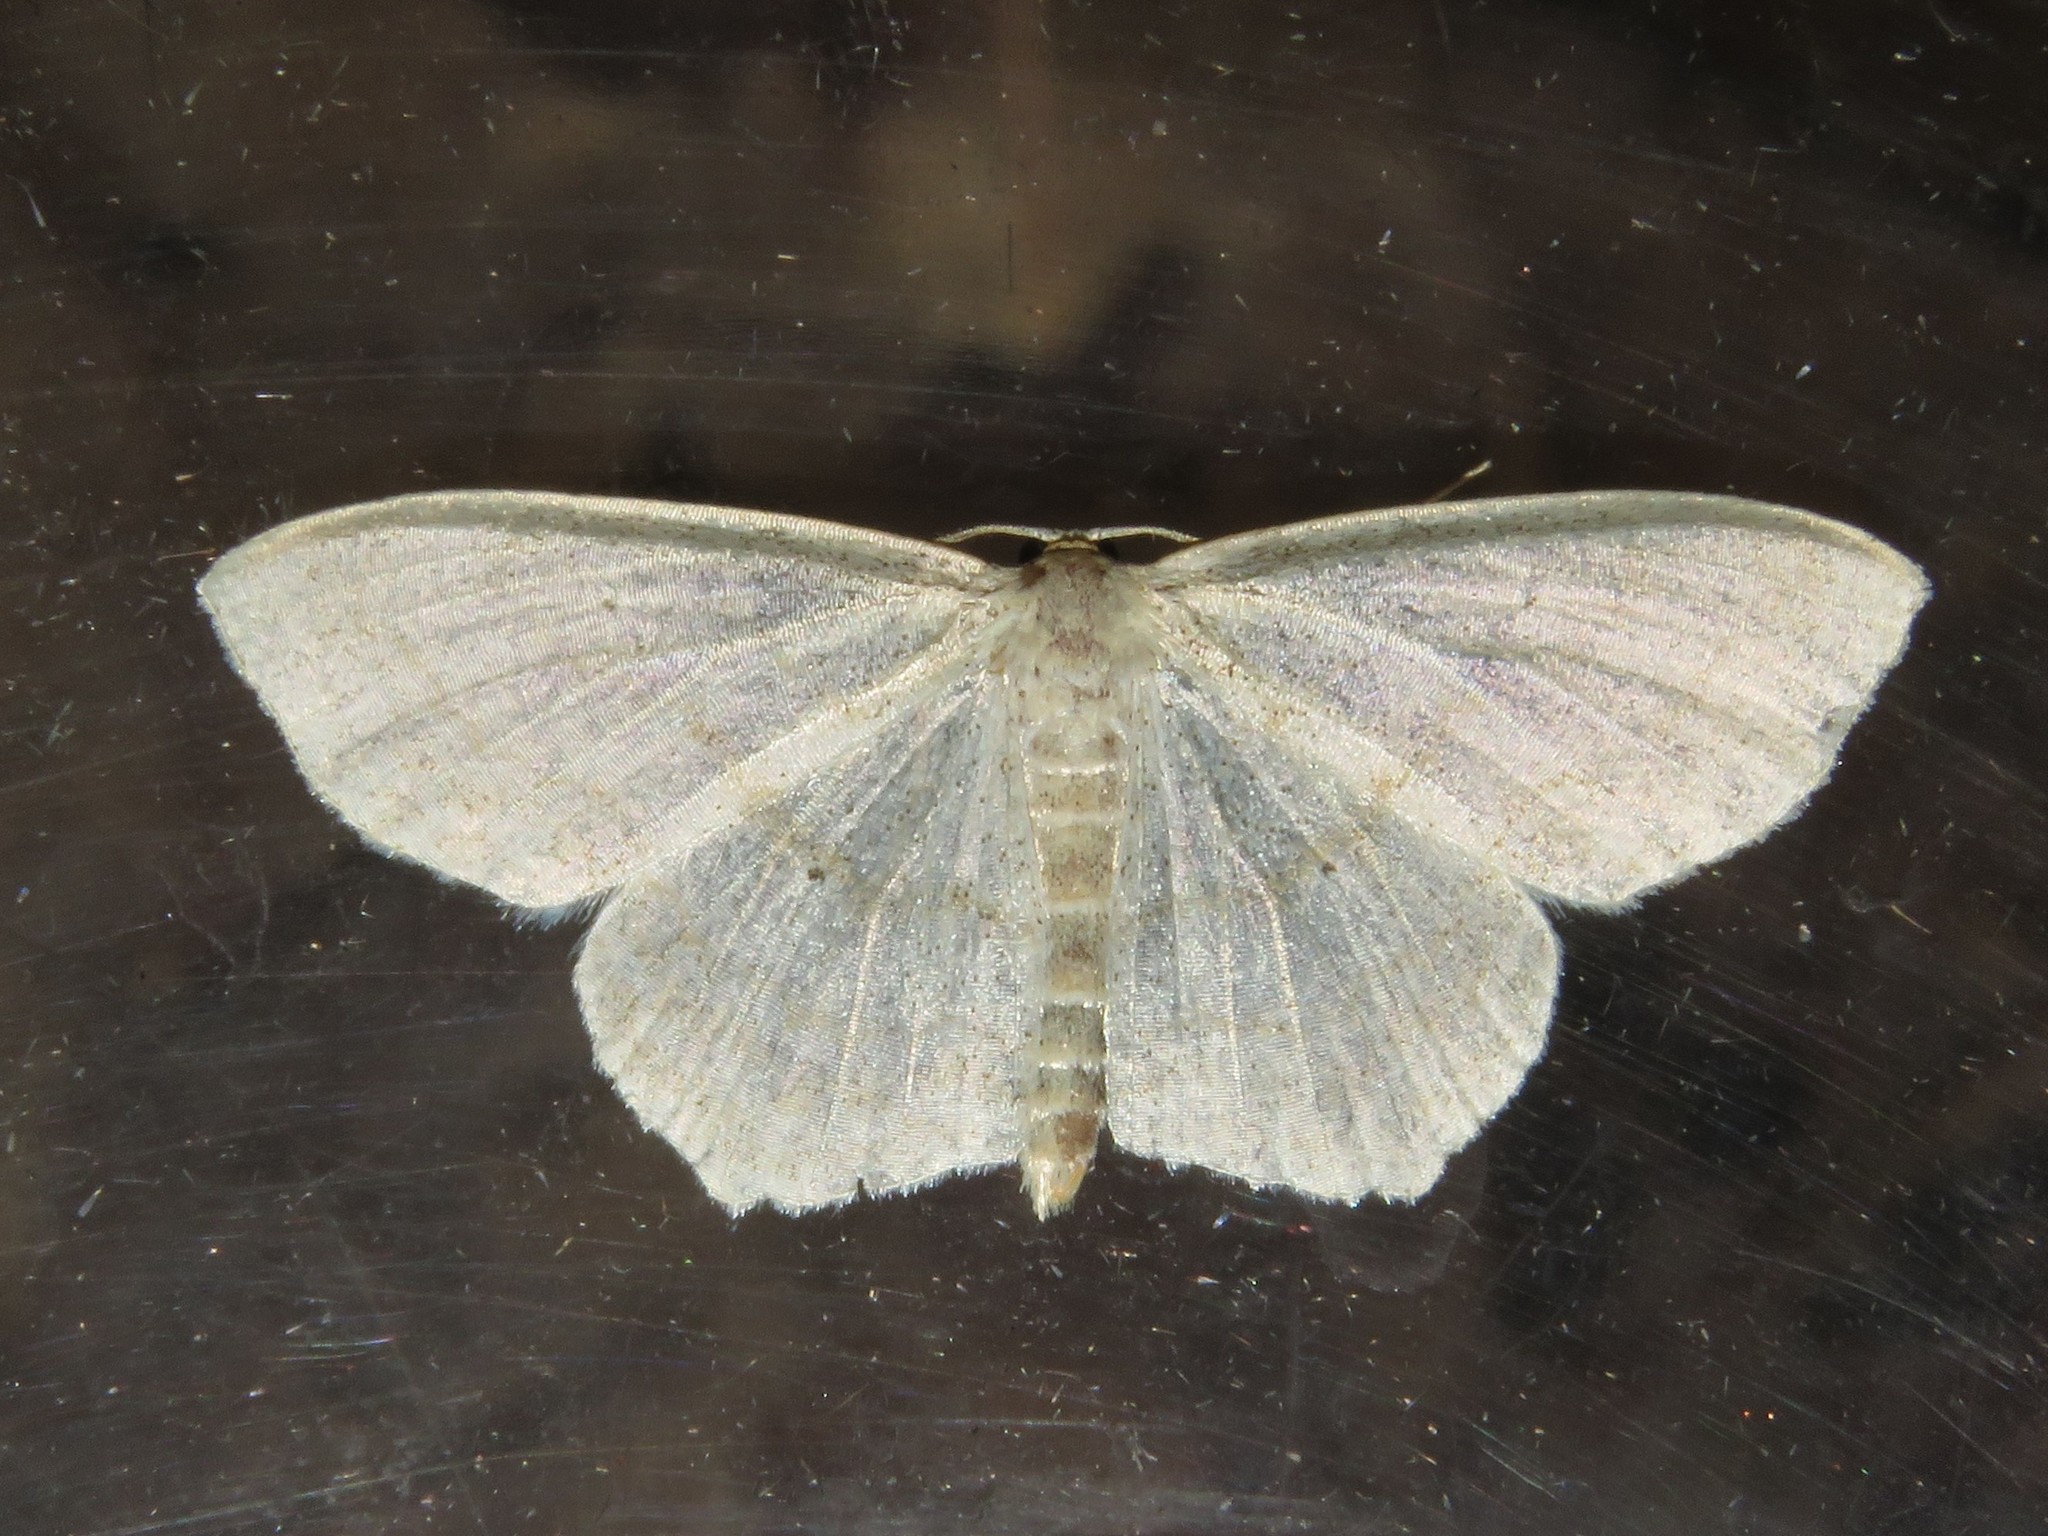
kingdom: Animalia
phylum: Arthropoda
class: Insecta
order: Lepidoptera
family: Geometridae
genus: Scopula
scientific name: Scopula limboundata
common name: Large lace border
